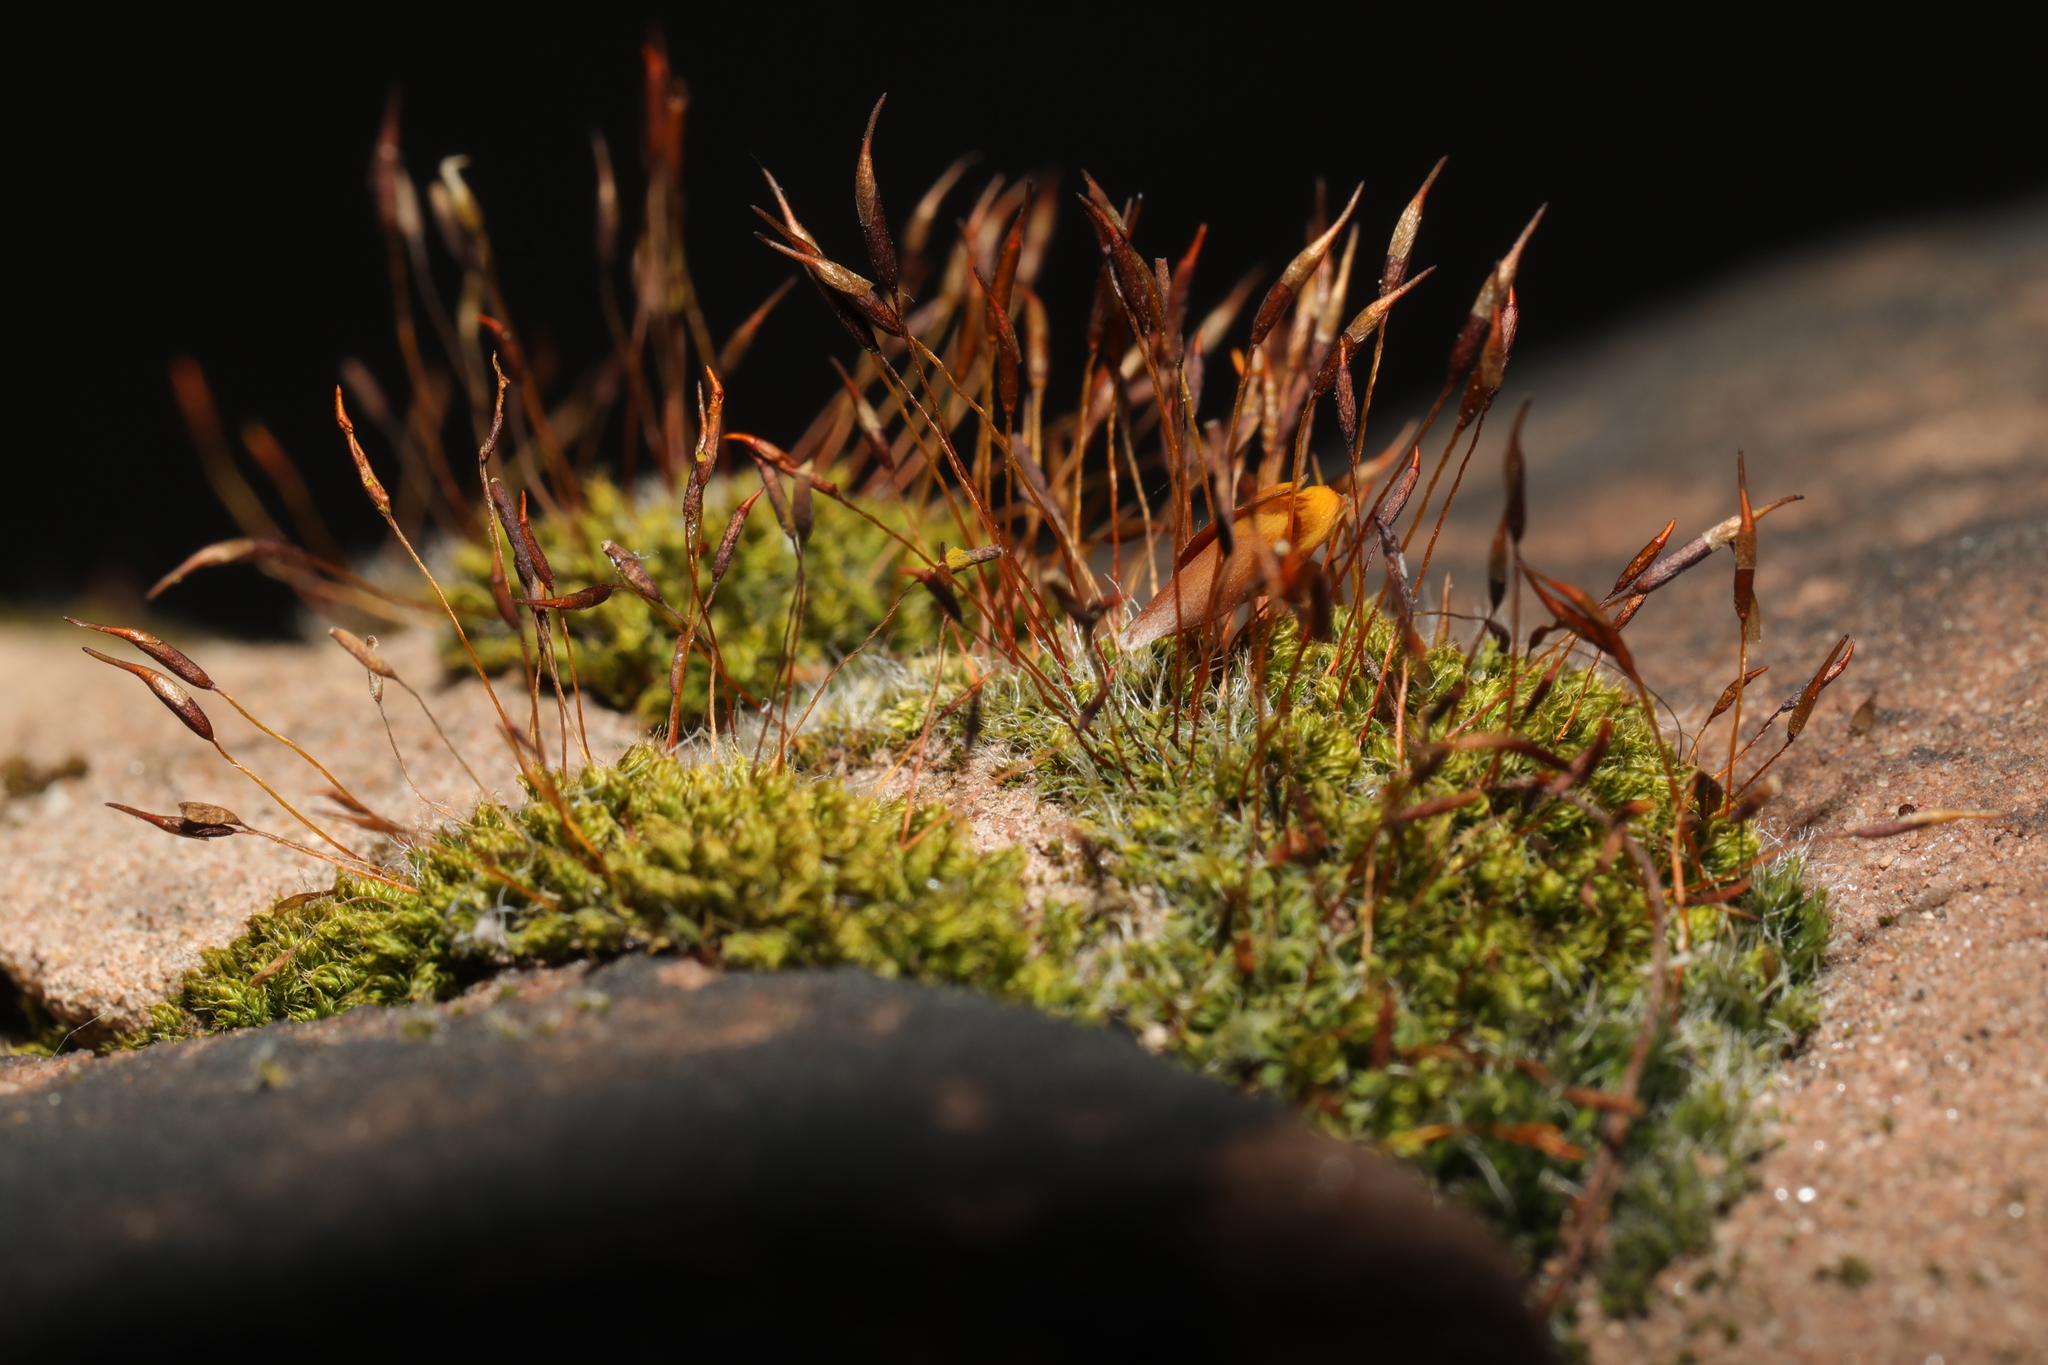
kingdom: Plantae
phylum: Bryophyta
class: Bryopsida
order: Pottiales
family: Pottiaceae
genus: Tortula
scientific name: Tortula muralis
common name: Wall screw-moss
